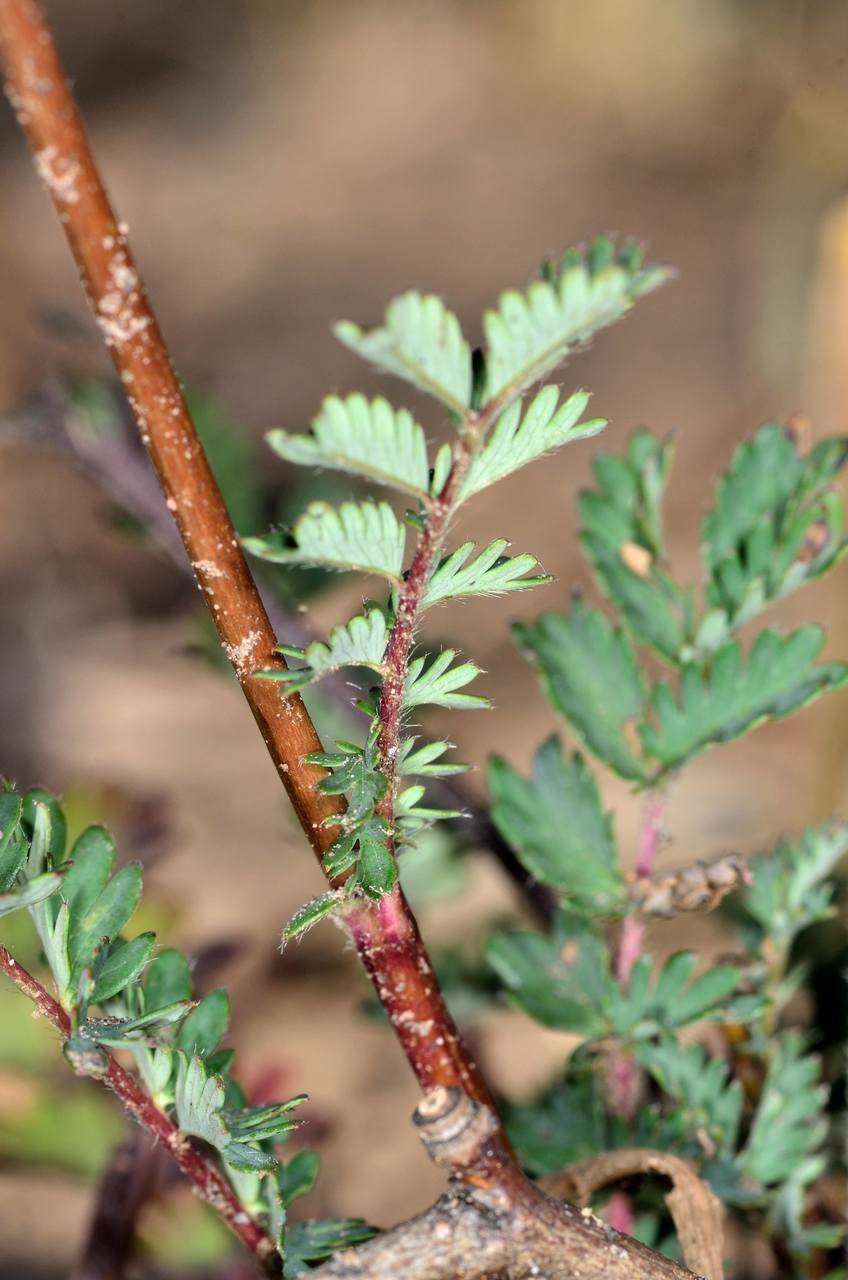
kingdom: Plantae
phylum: Tracheophyta
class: Magnoliopsida
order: Rosales
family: Rosaceae
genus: Acaena
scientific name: Acaena echinata
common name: Sheepbur
